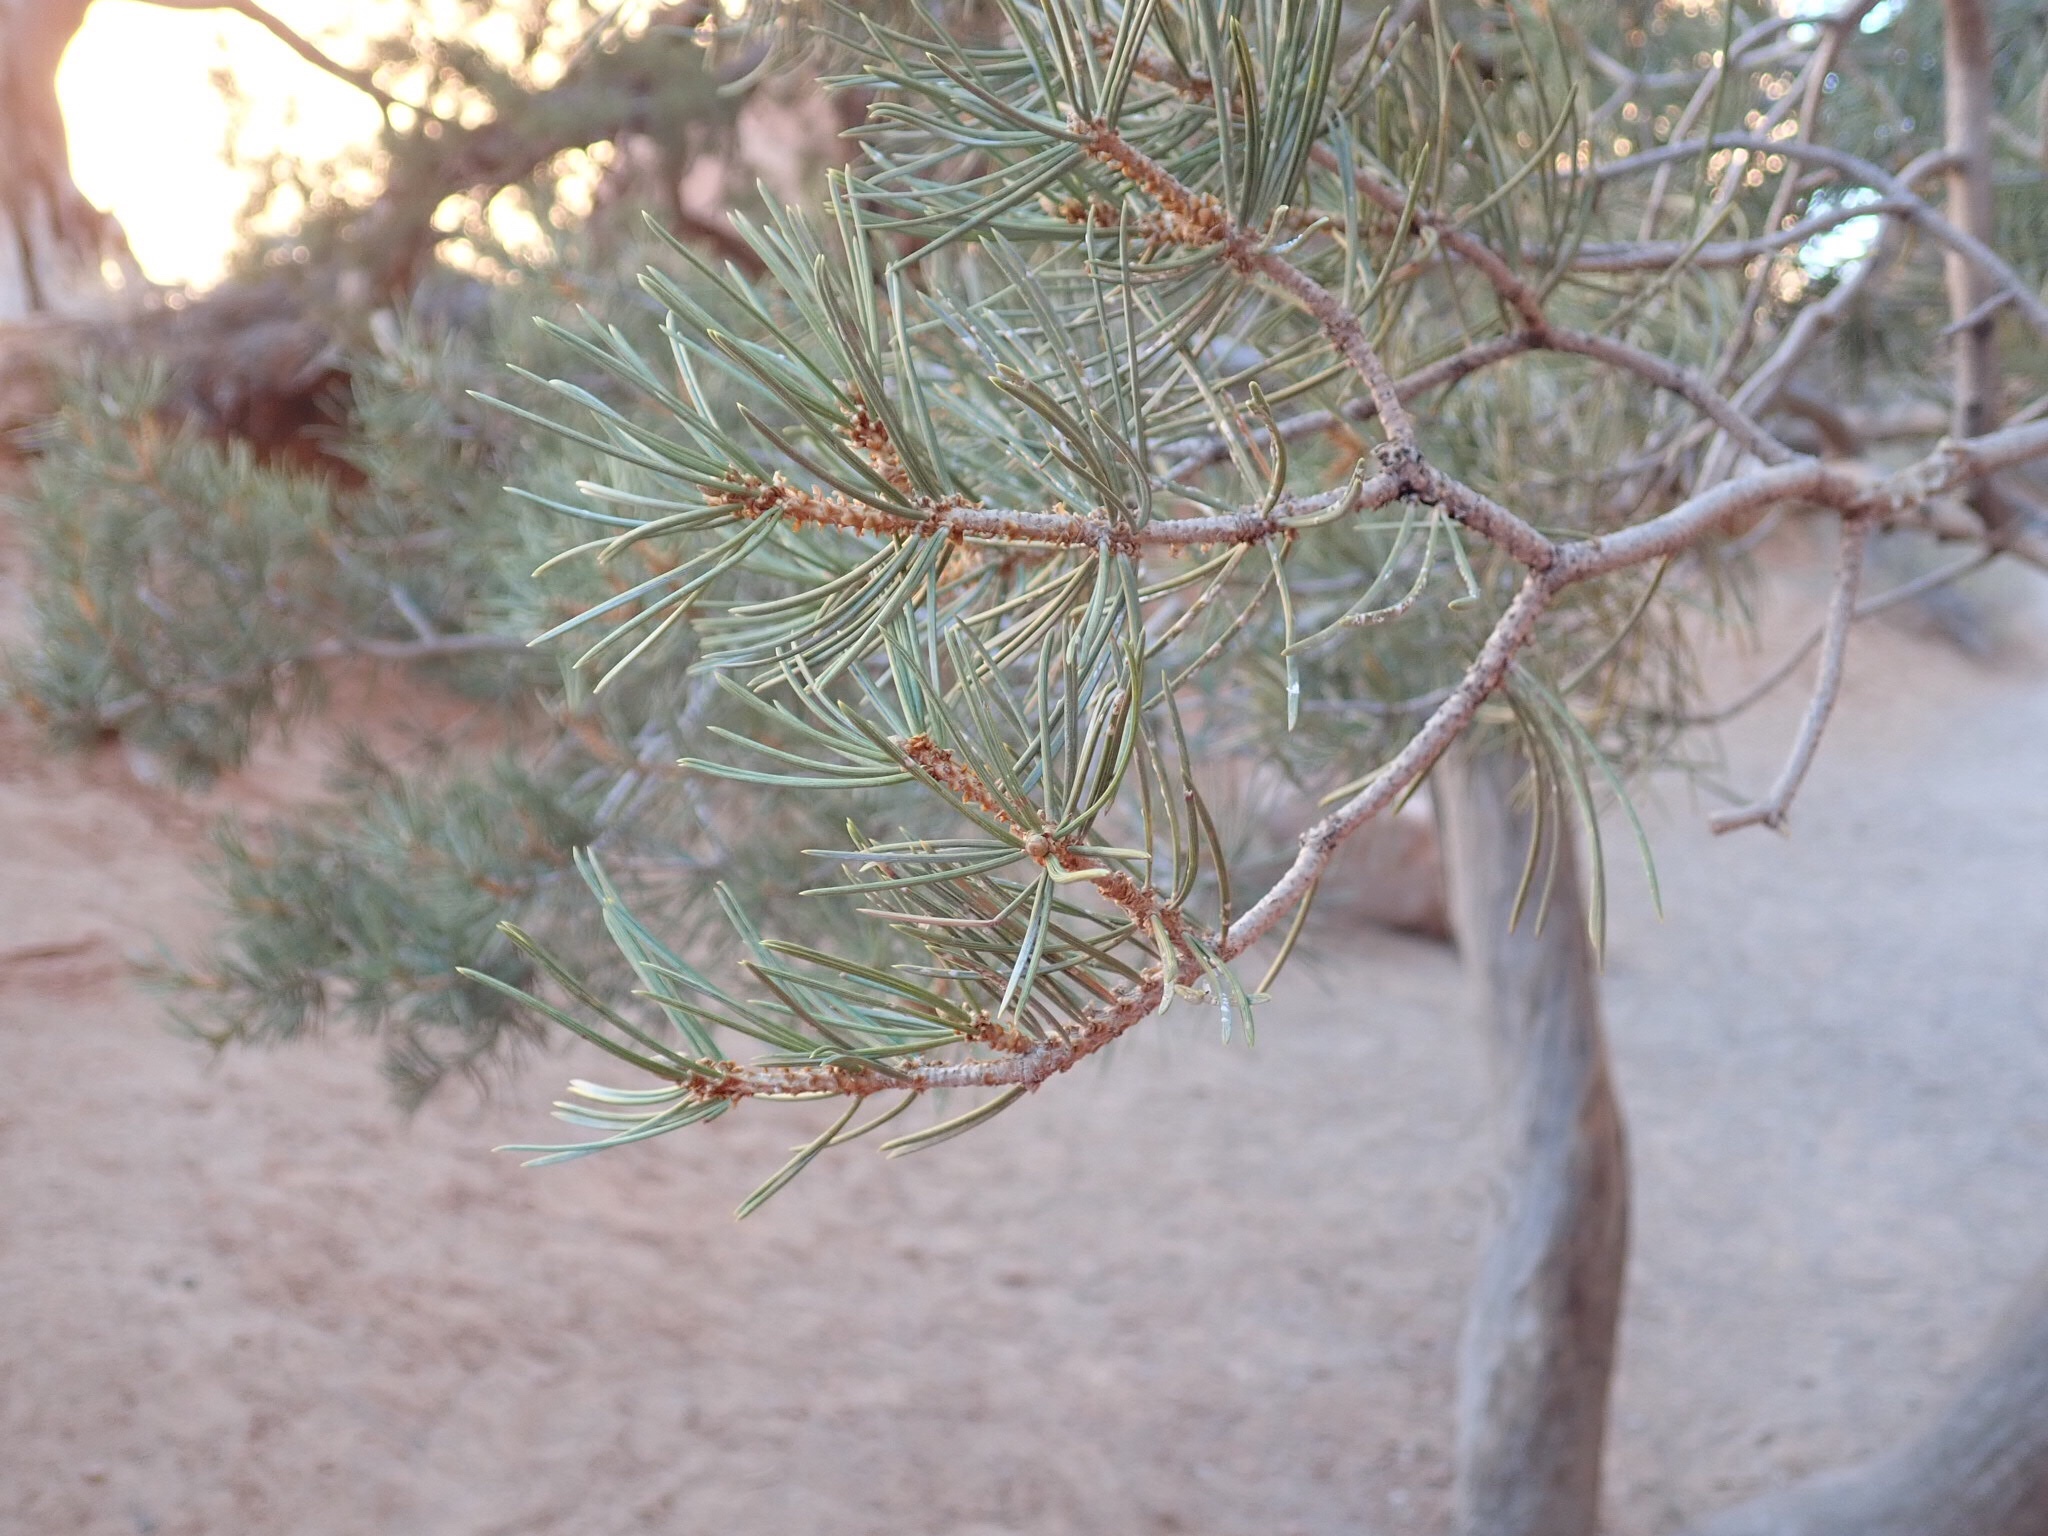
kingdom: Plantae
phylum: Tracheophyta
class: Pinopsida
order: Pinales
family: Pinaceae
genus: Pinus
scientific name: Pinus edulis
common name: Colorado pinyon
